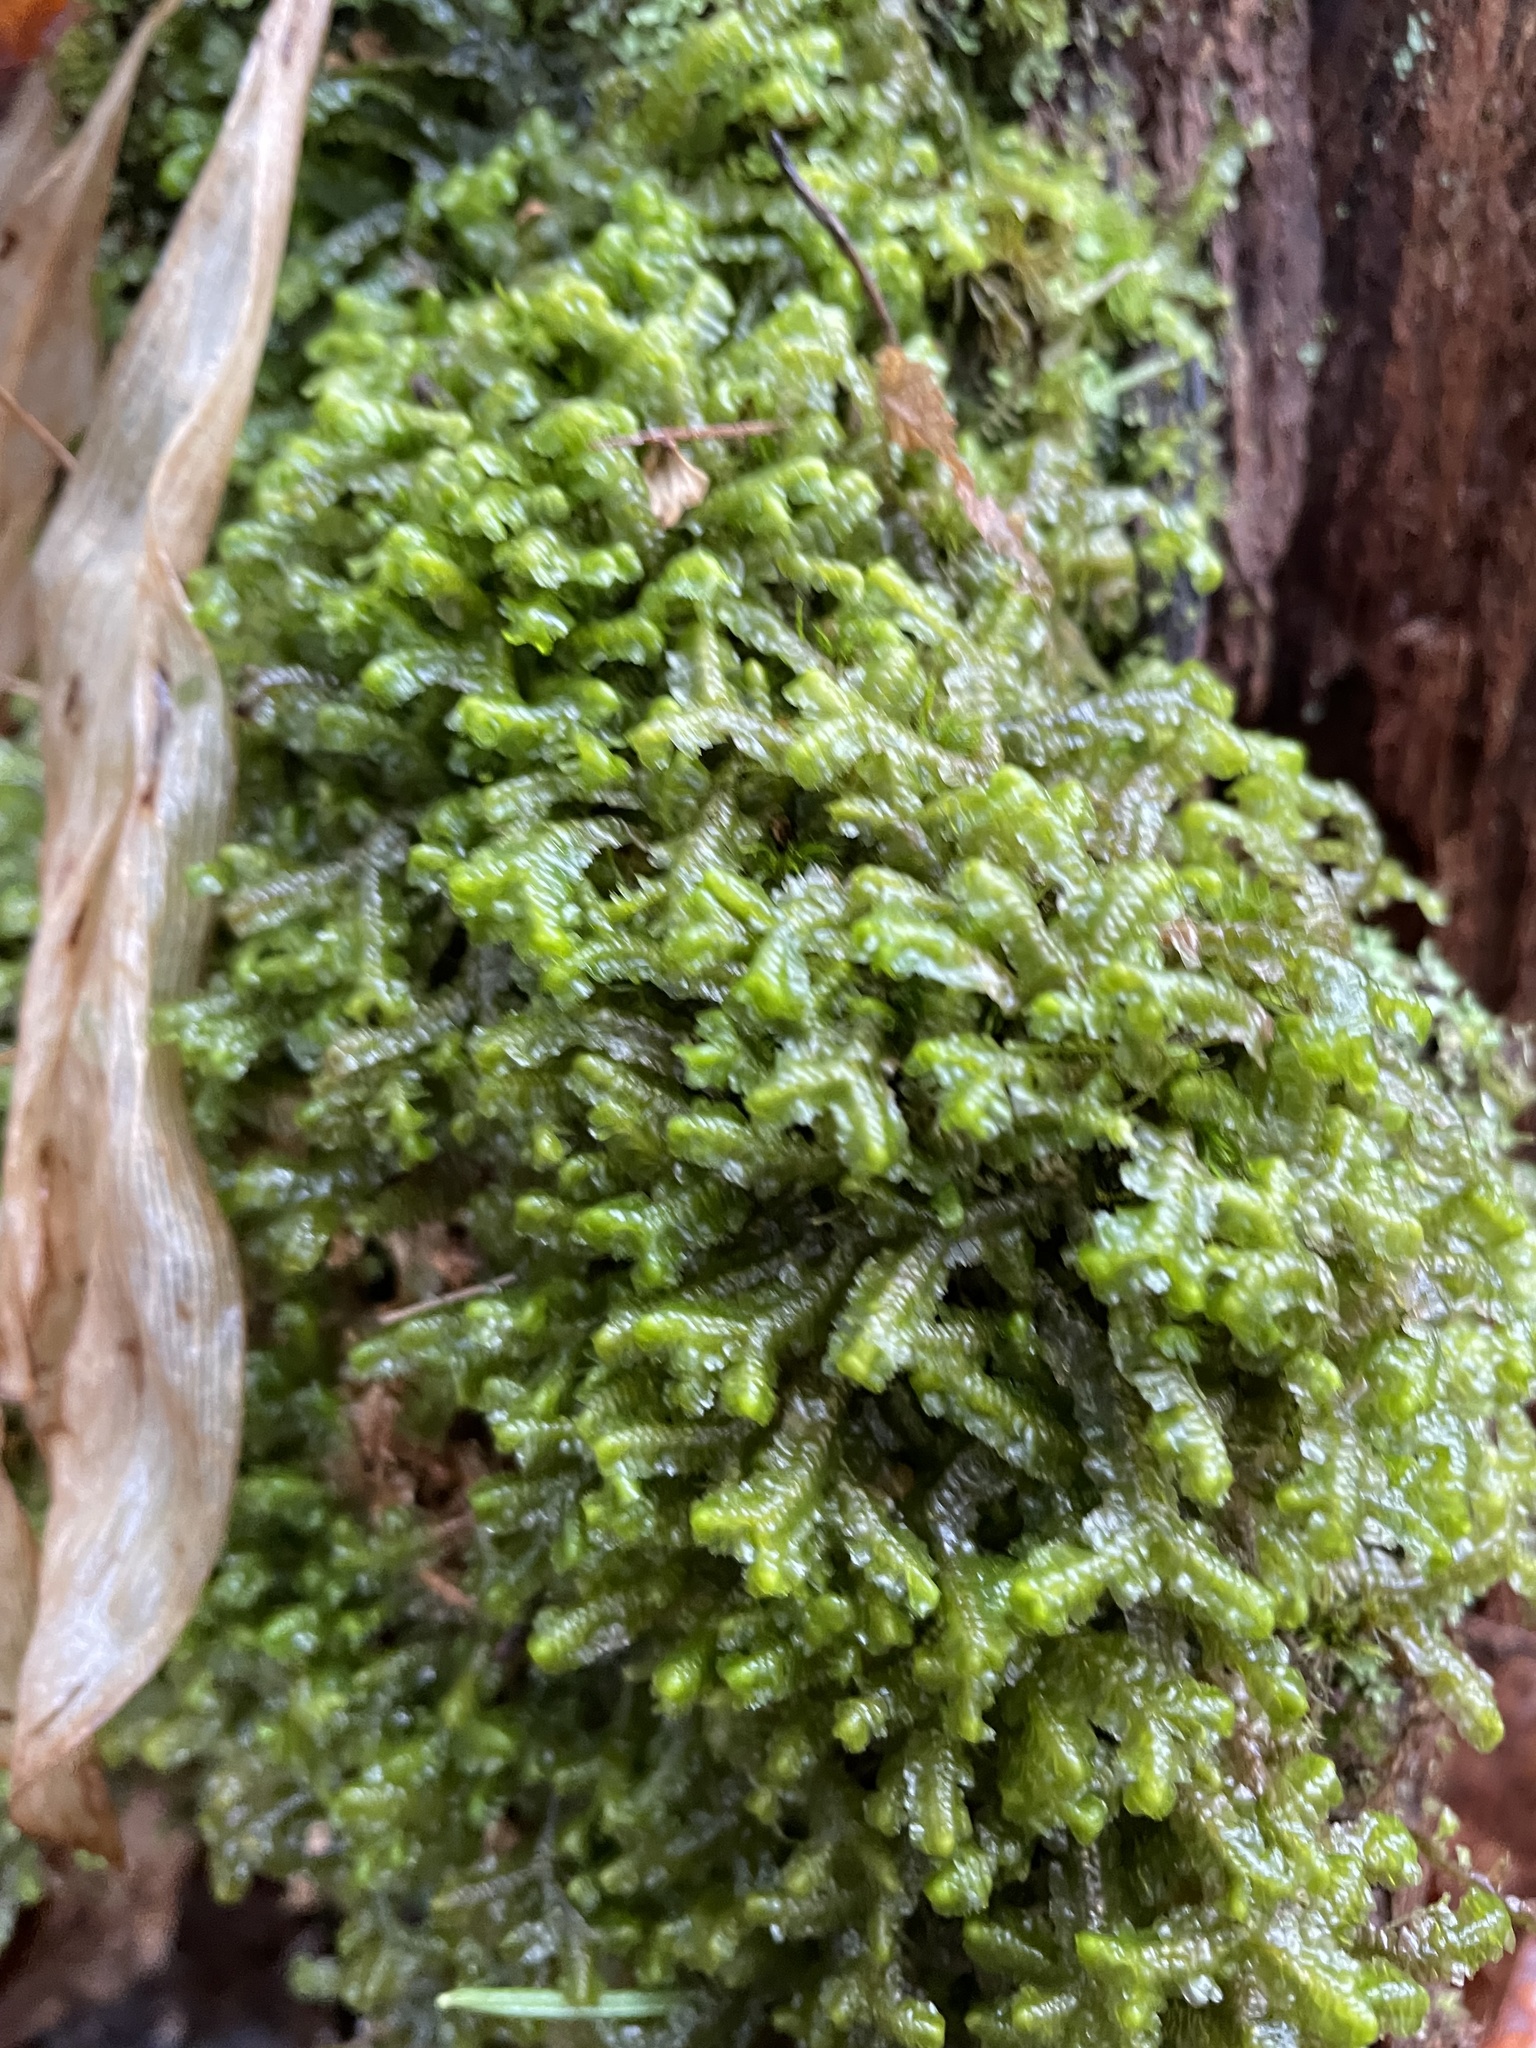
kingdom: Plantae
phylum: Marchantiophyta
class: Jungermanniopsida
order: Jungermanniales
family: Lepidoziaceae
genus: Bazzania
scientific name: Bazzania trilobata
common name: Three-lobed whipwort
